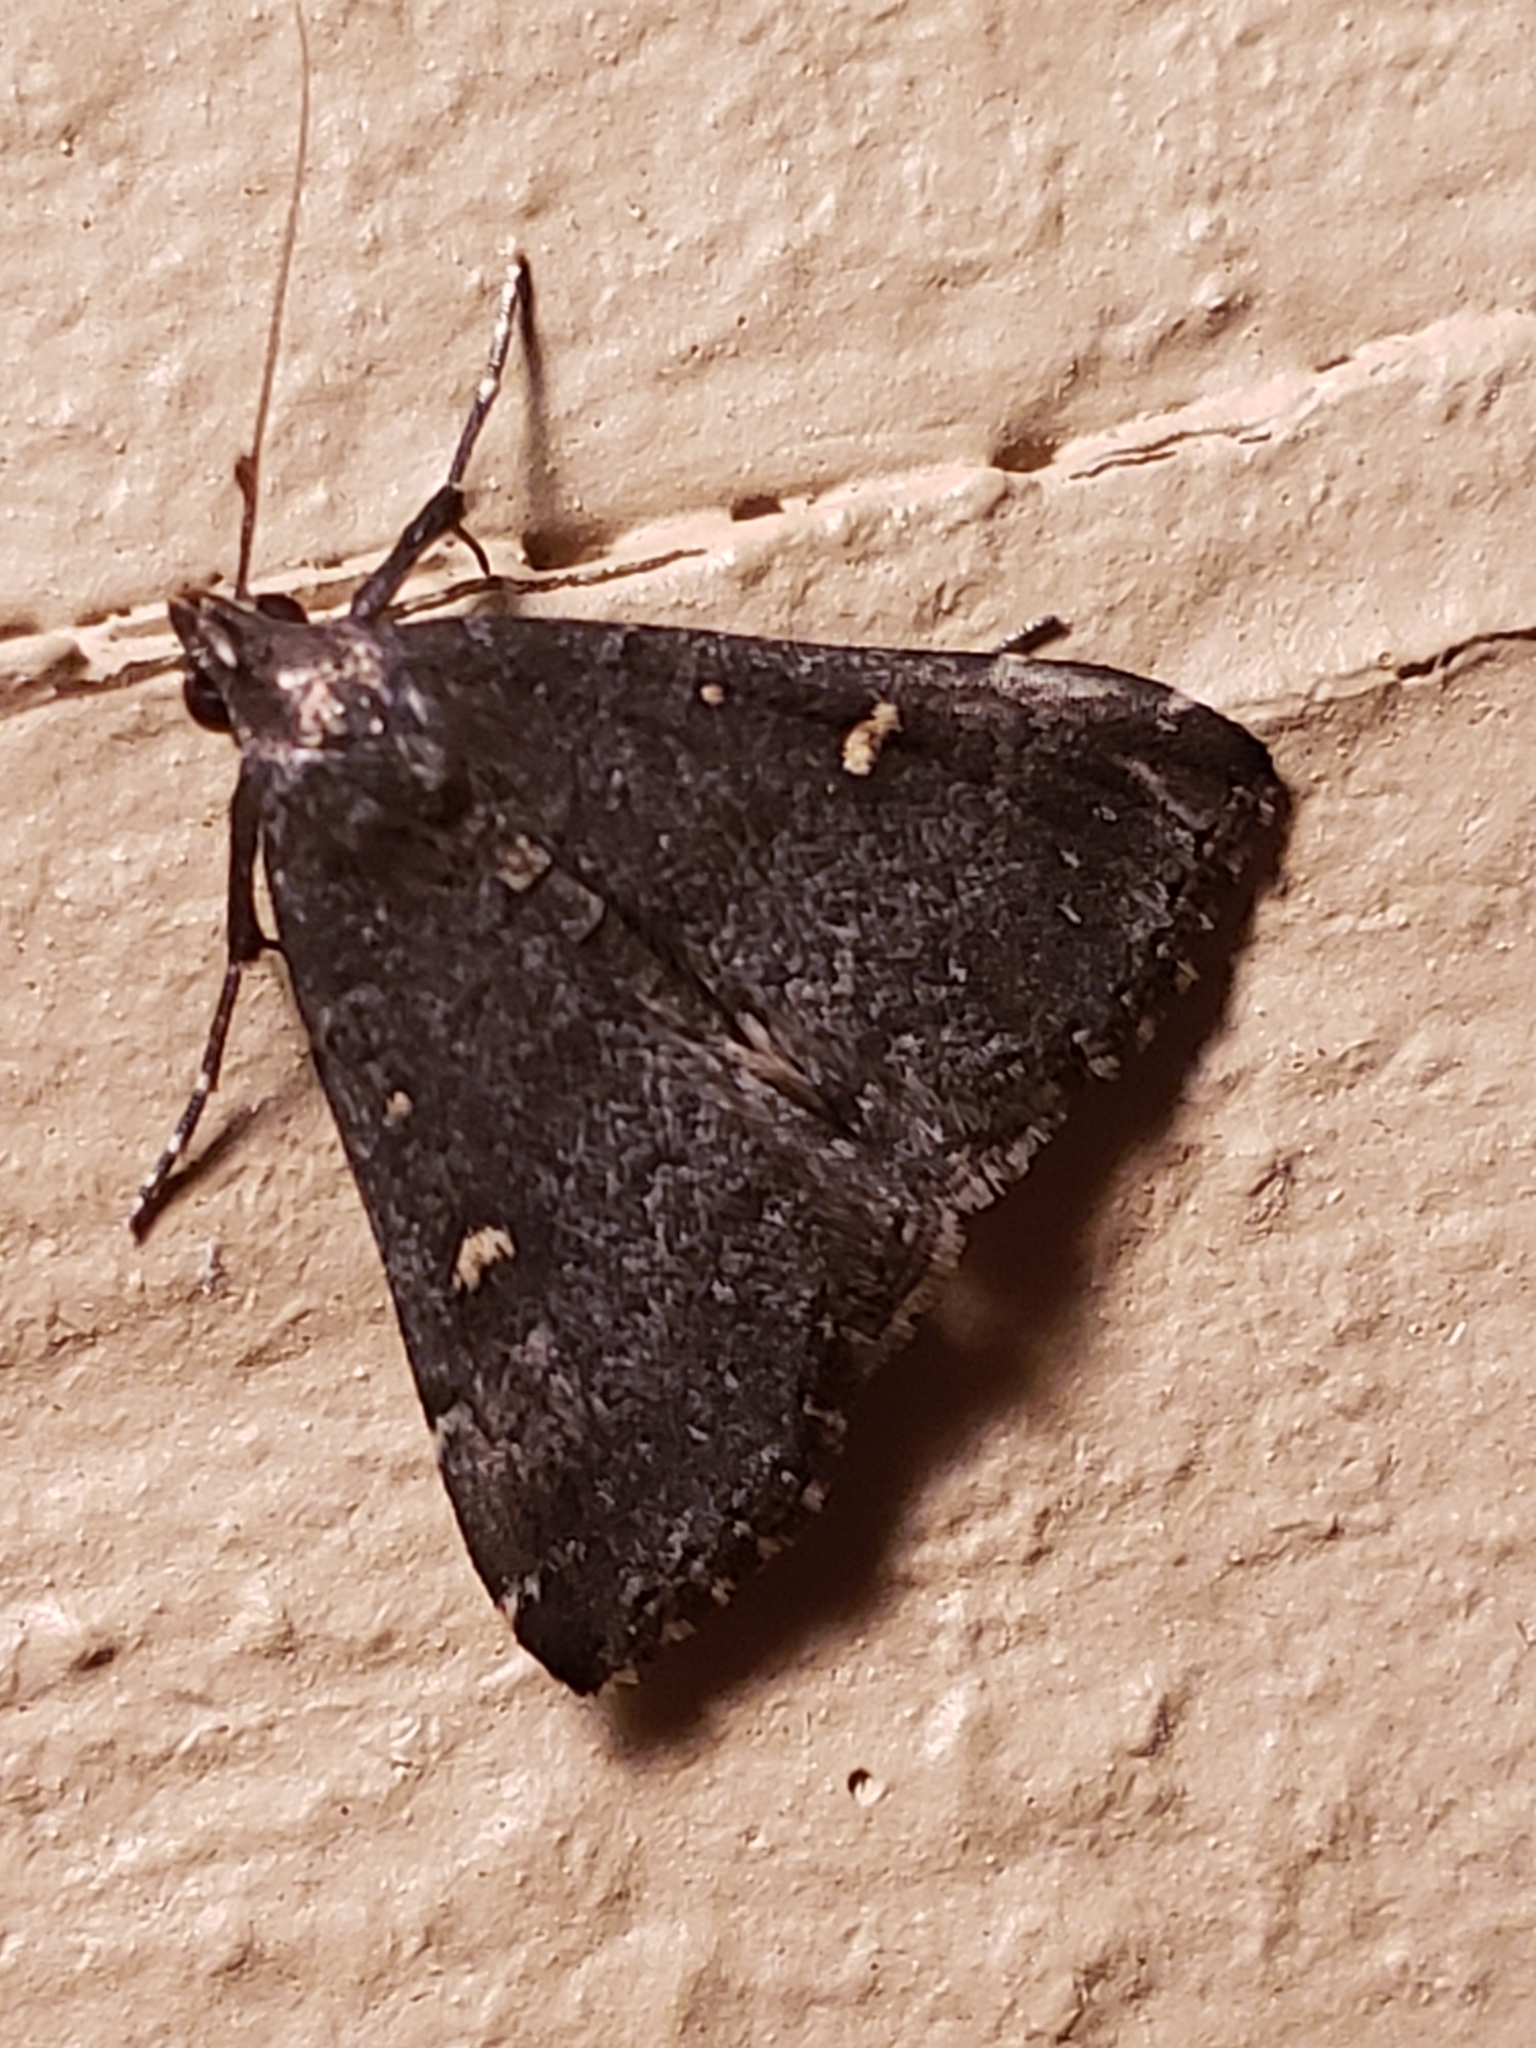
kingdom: Animalia
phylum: Arthropoda
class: Insecta
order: Lepidoptera
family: Erebidae
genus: Tetanolita
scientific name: Tetanolita mynesalis
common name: Smoky tetanolita moth
